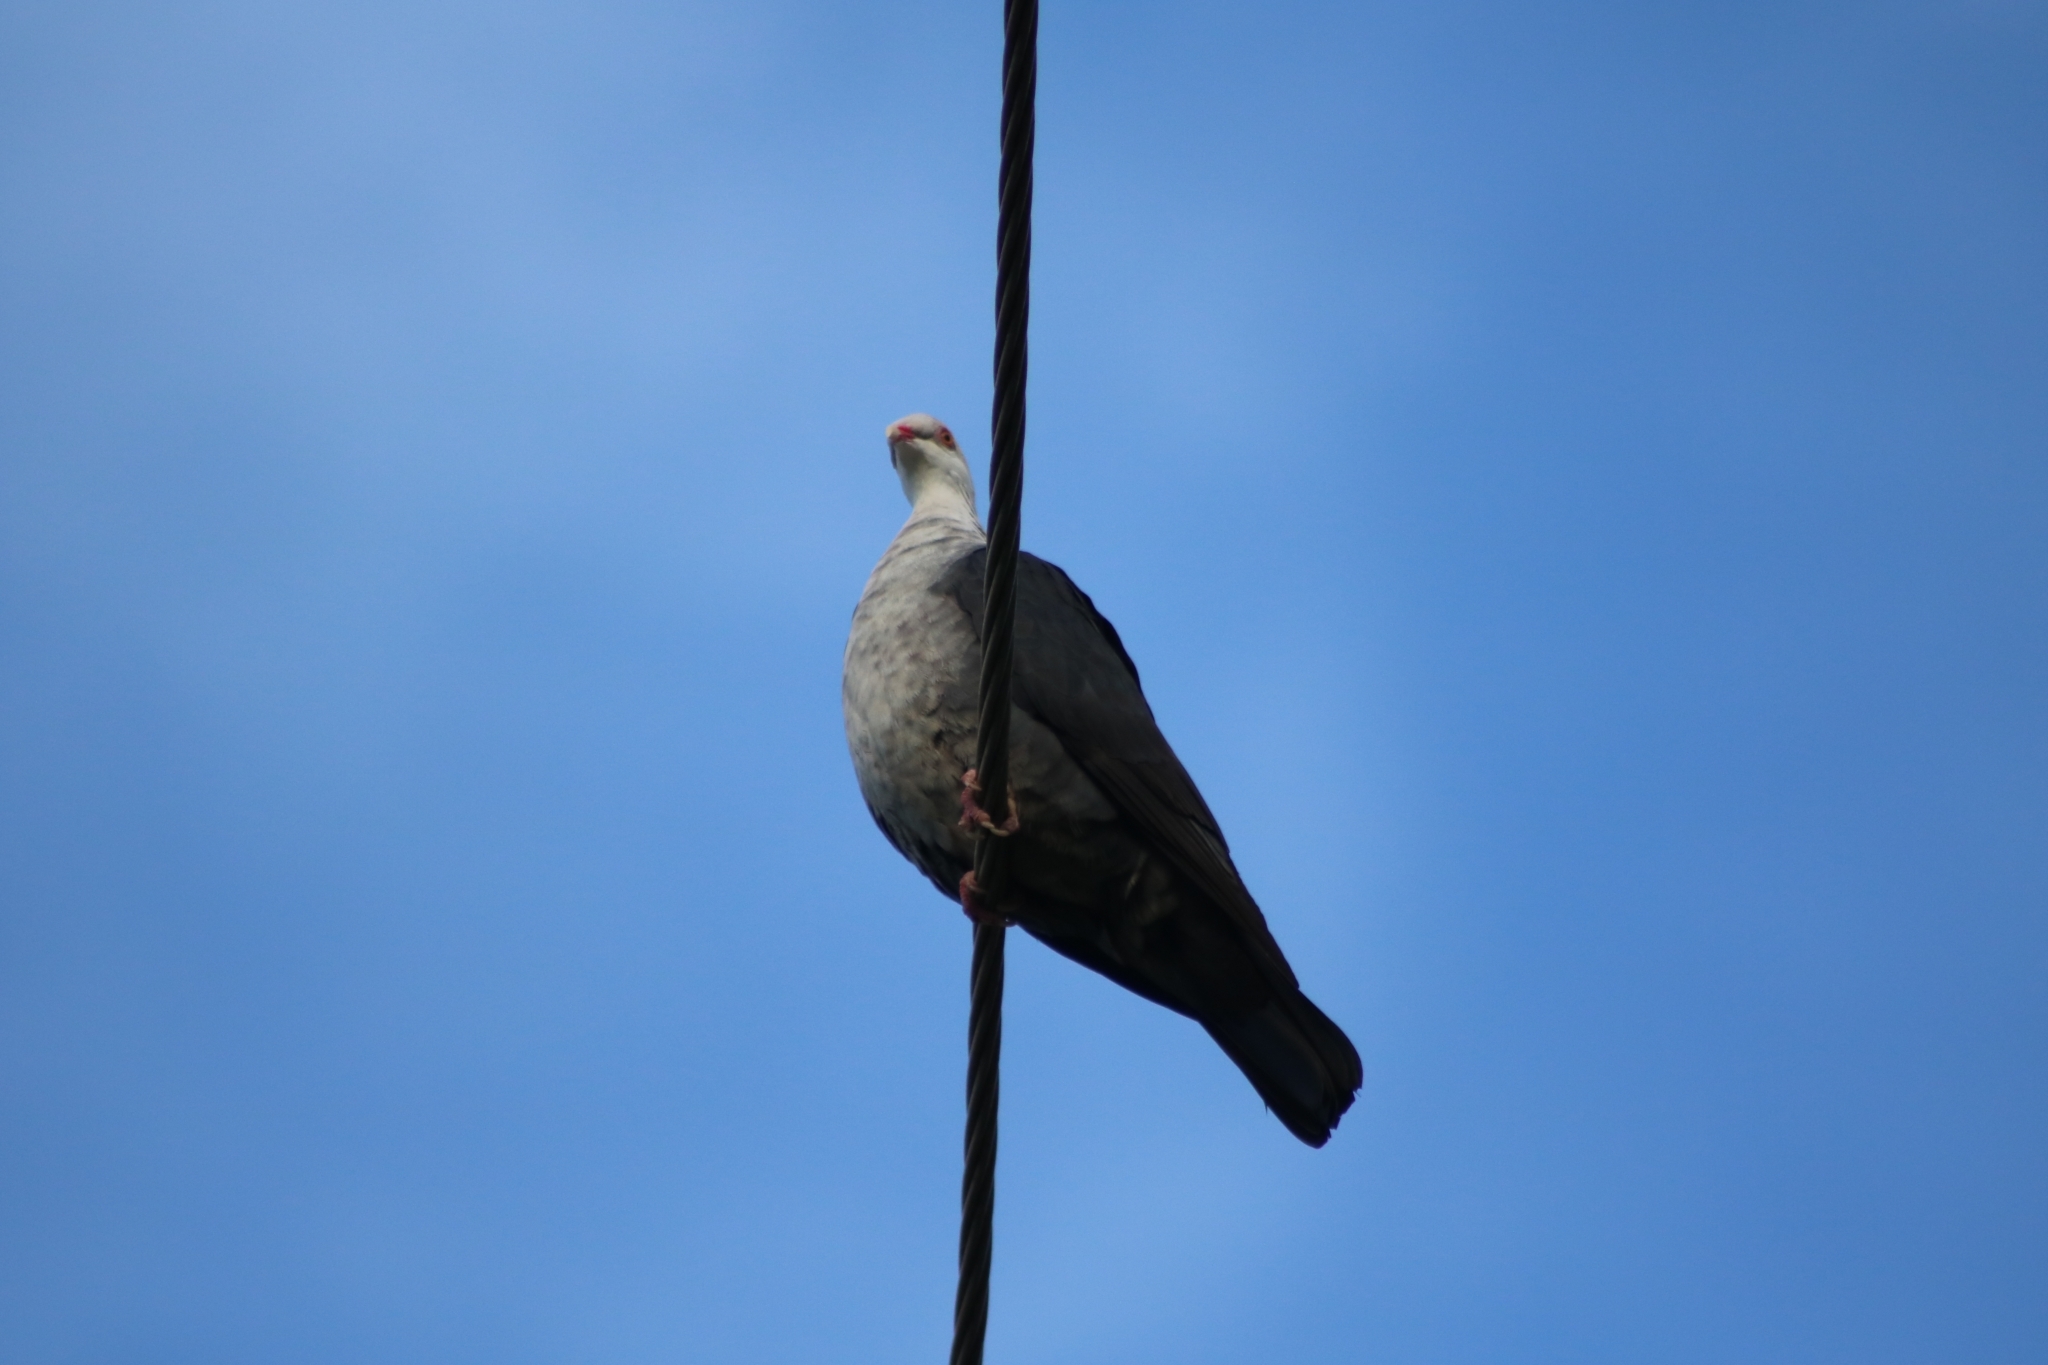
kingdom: Animalia
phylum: Chordata
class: Aves
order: Columbiformes
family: Columbidae
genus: Columba
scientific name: Columba leucomela
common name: White-headed pigeon
